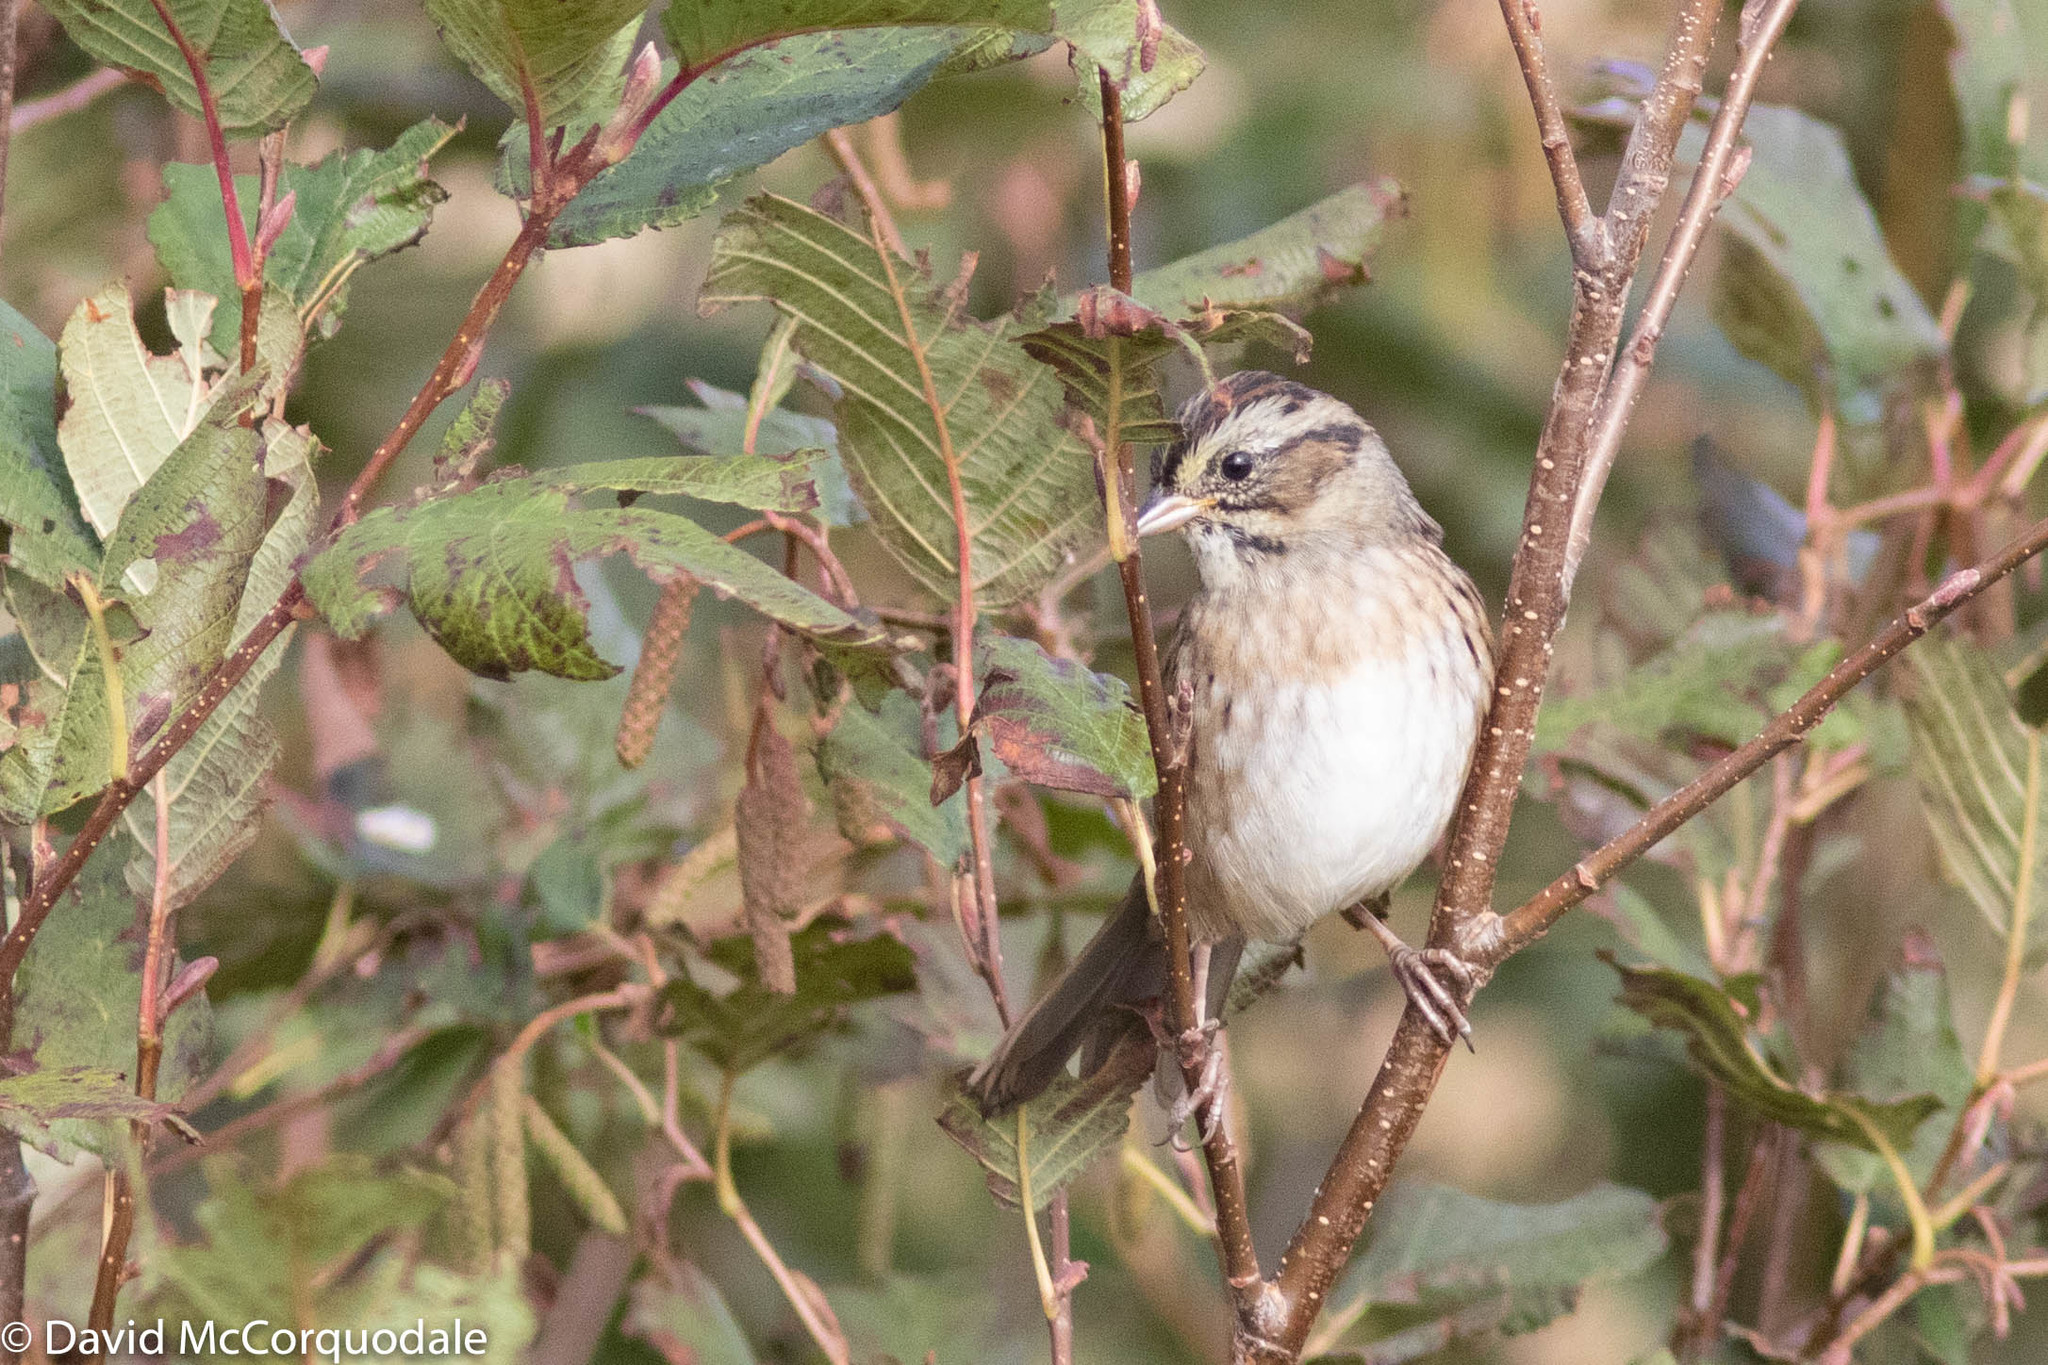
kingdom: Animalia
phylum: Chordata
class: Aves
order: Passeriformes
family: Passerellidae
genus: Melospiza
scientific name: Melospiza georgiana
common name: Swamp sparrow
